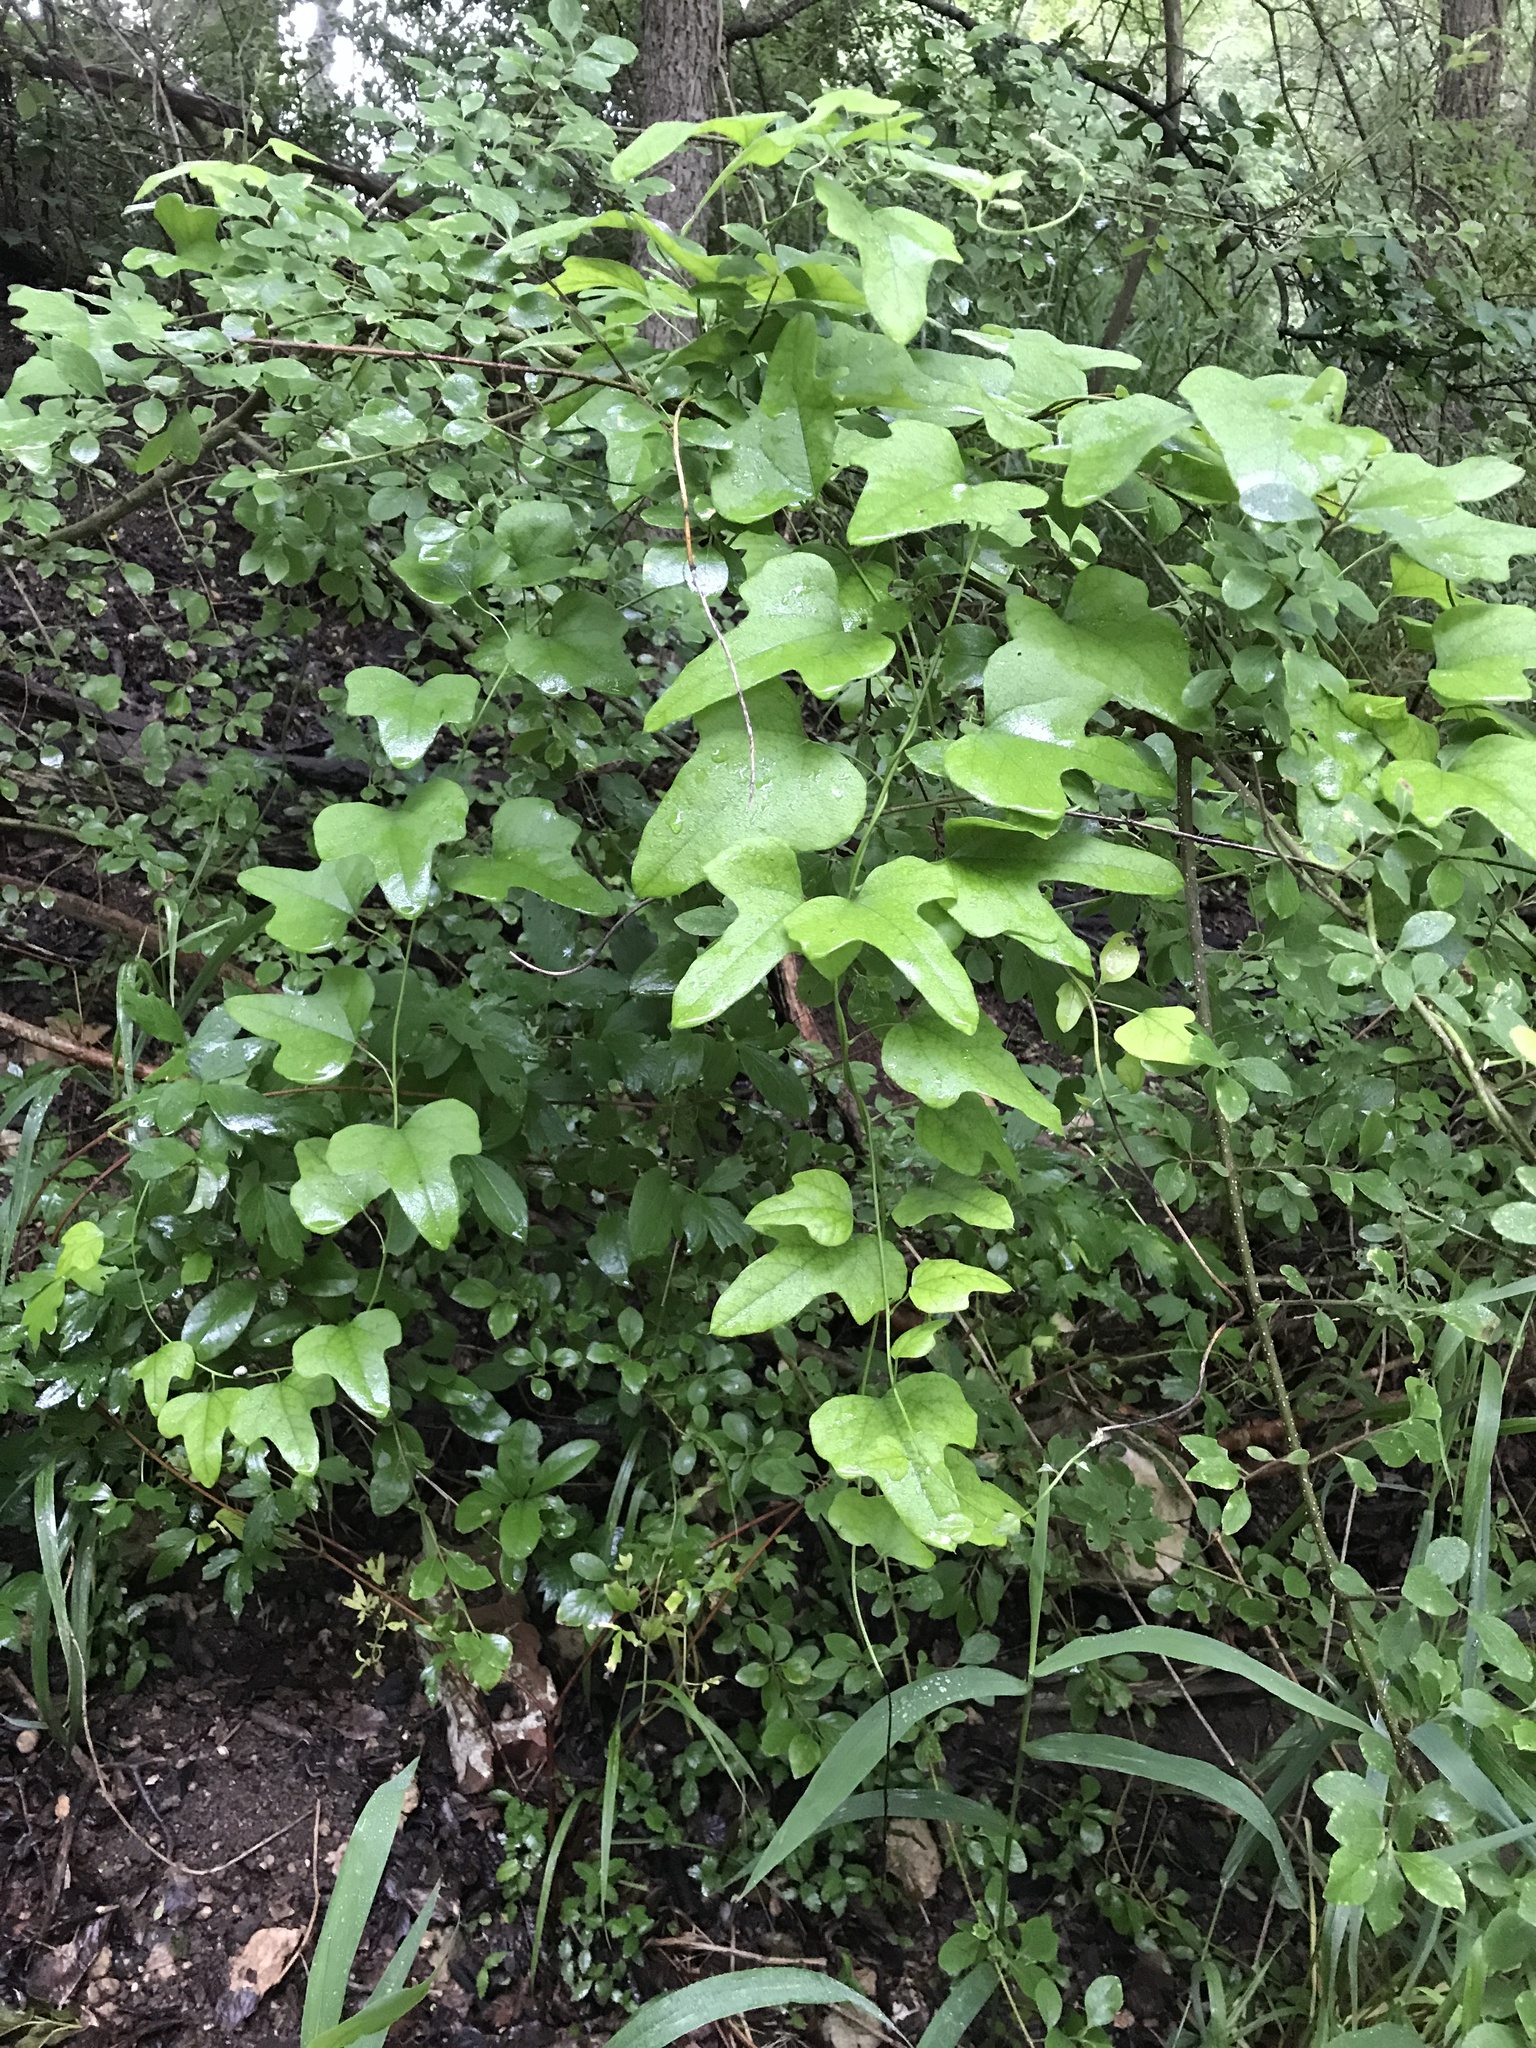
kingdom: Plantae
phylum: Tracheophyta
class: Magnoliopsida
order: Ranunculales
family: Menispermaceae
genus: Cocculus
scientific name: Cocculus carolinus
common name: Carolina moonseed
